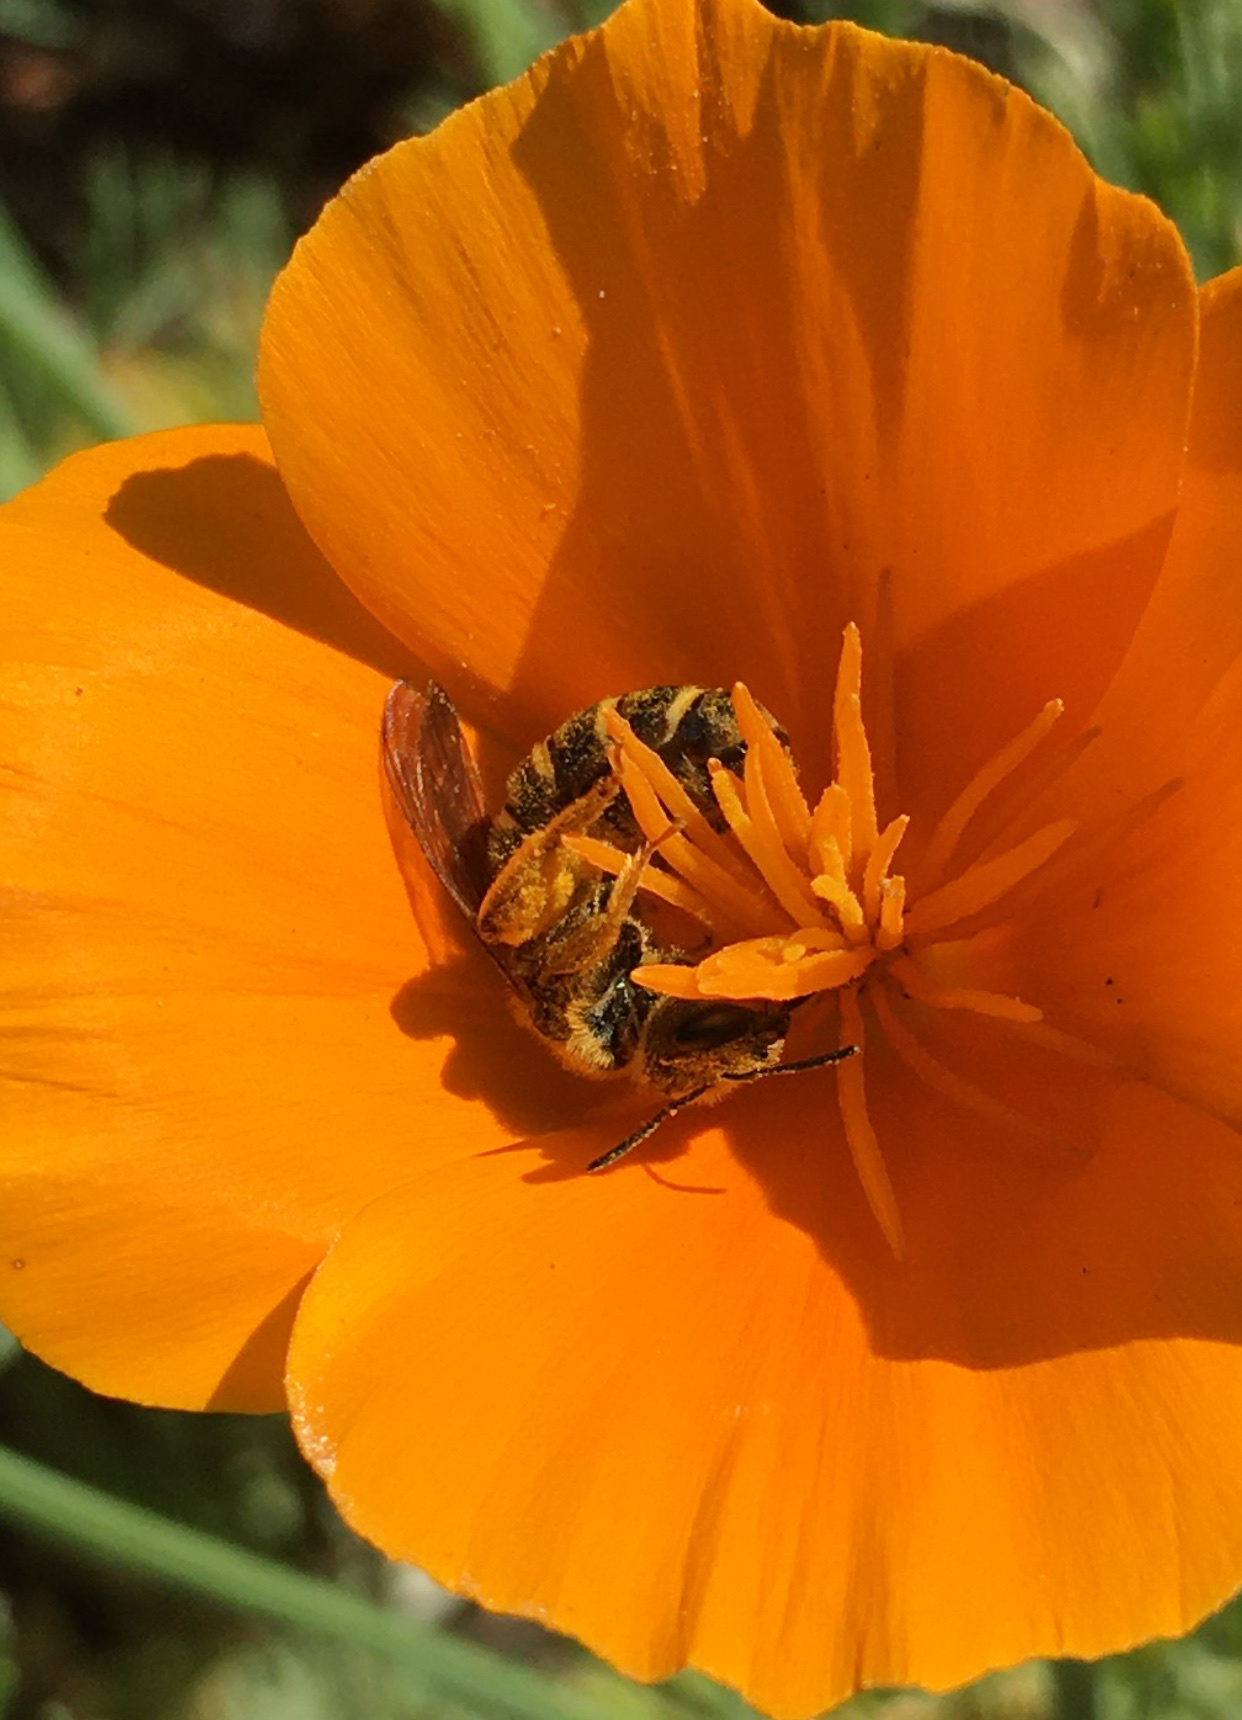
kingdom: Animalia
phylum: Arthropoda
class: Insecta
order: Hymenoptera
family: Halictidae
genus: Halictus
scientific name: Halictus farinosus
